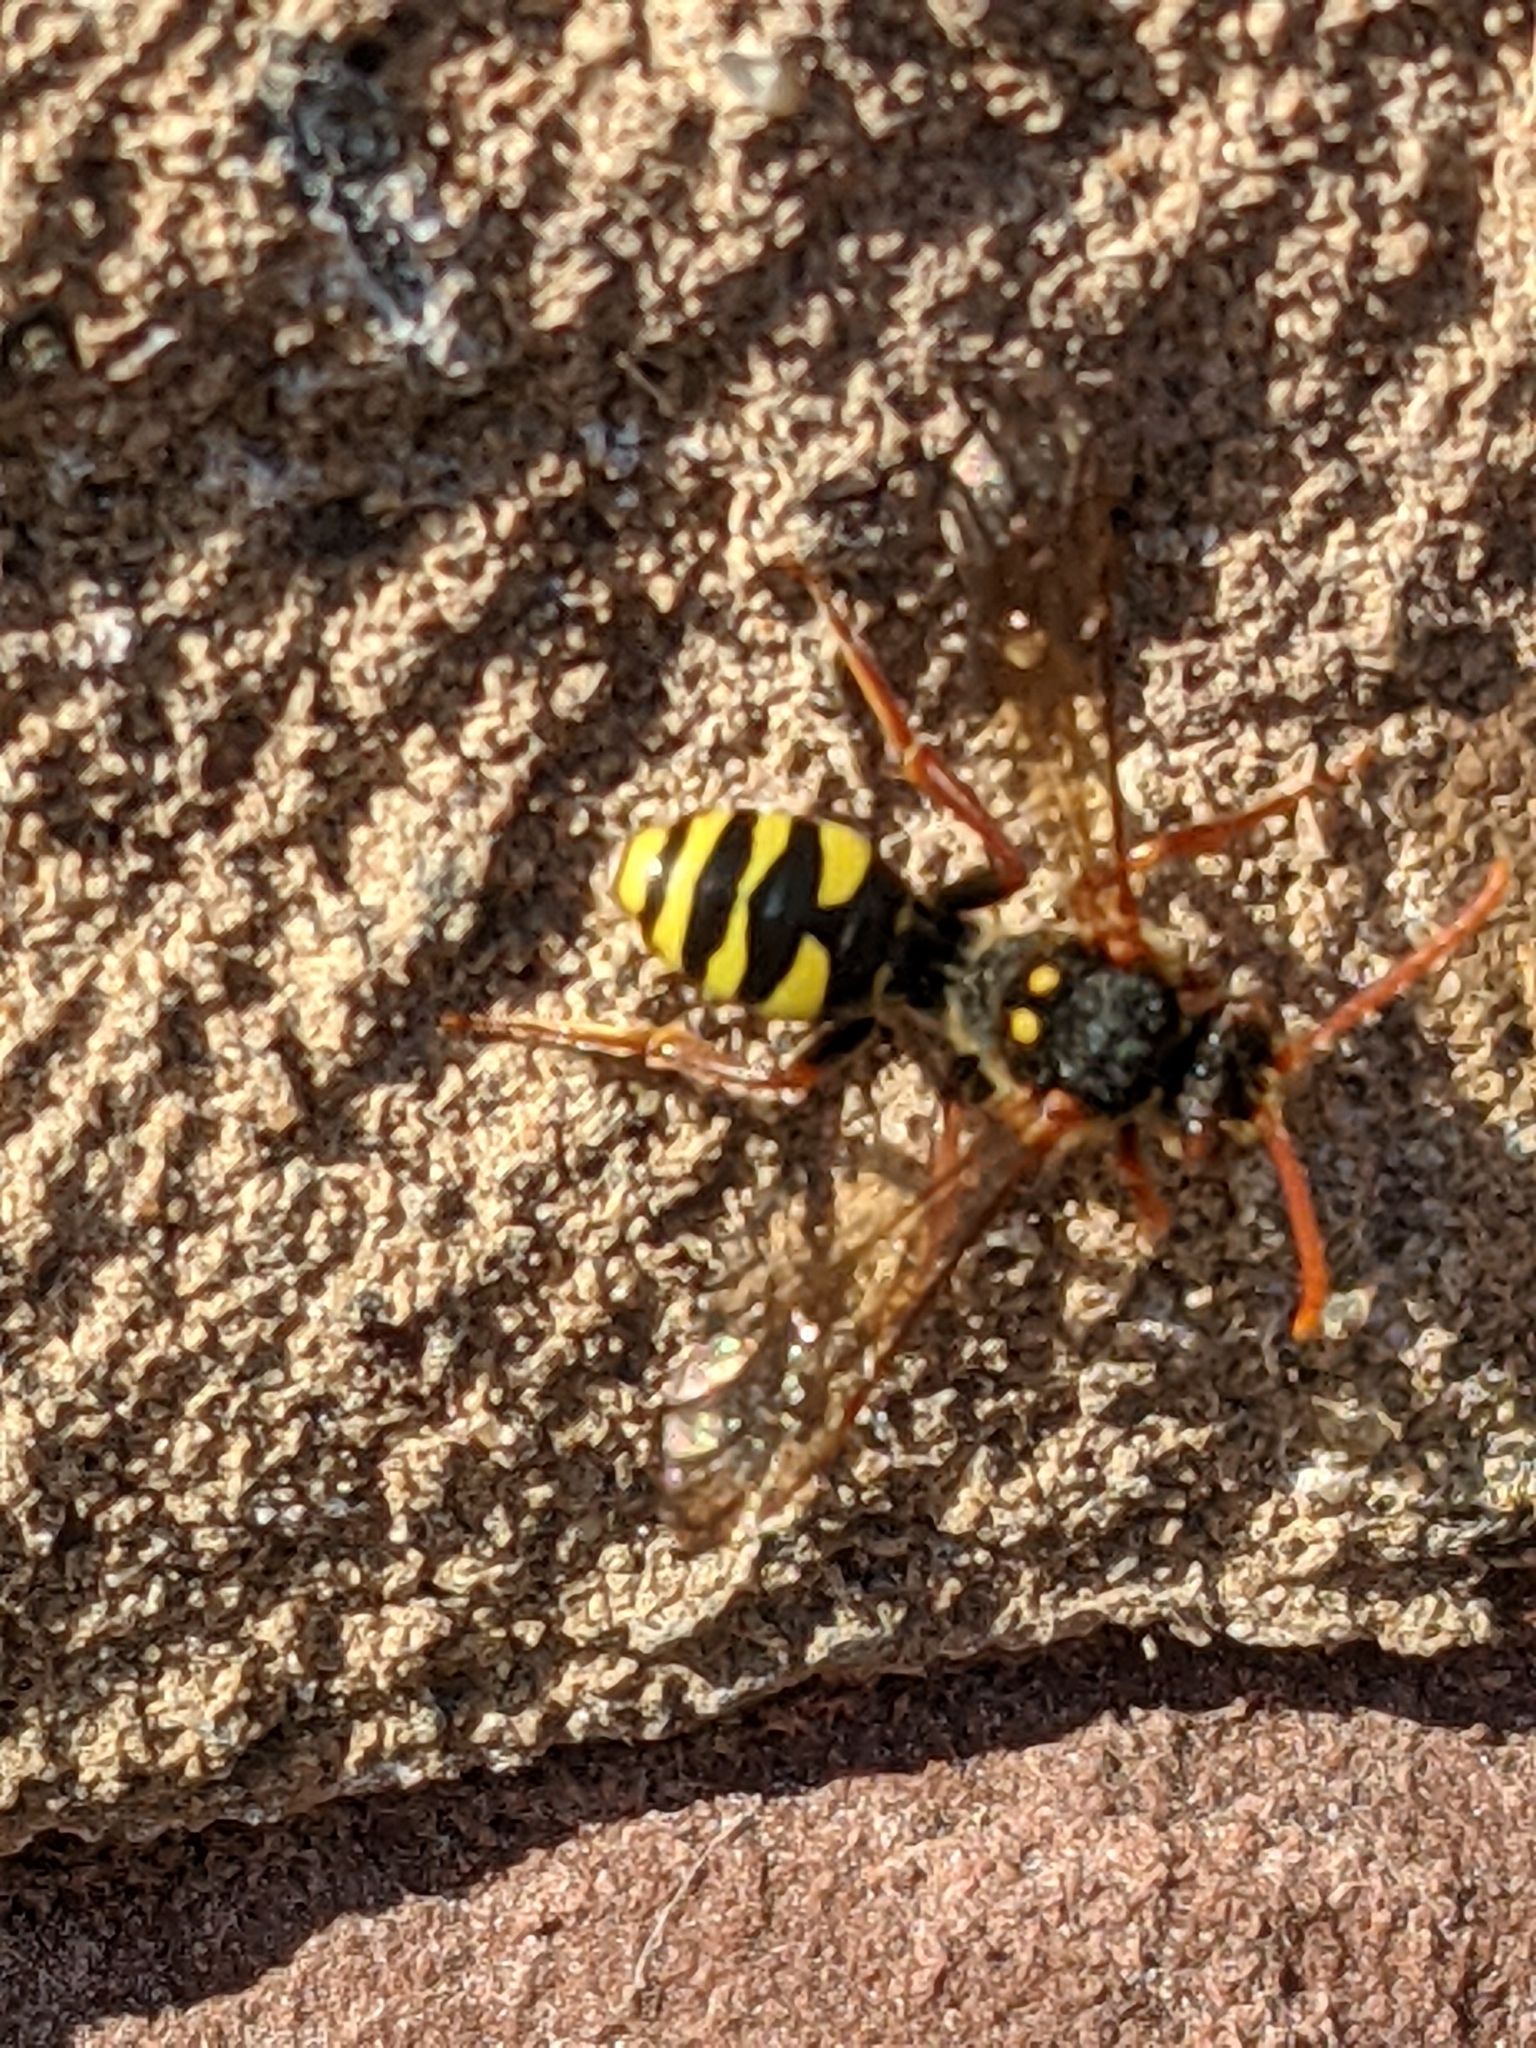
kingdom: Animalia
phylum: Arthropoda
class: Insecta
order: Hymenoptera
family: Apidae
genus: Nomada
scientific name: Nomada marshamella
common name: Marsham's nomad bee
